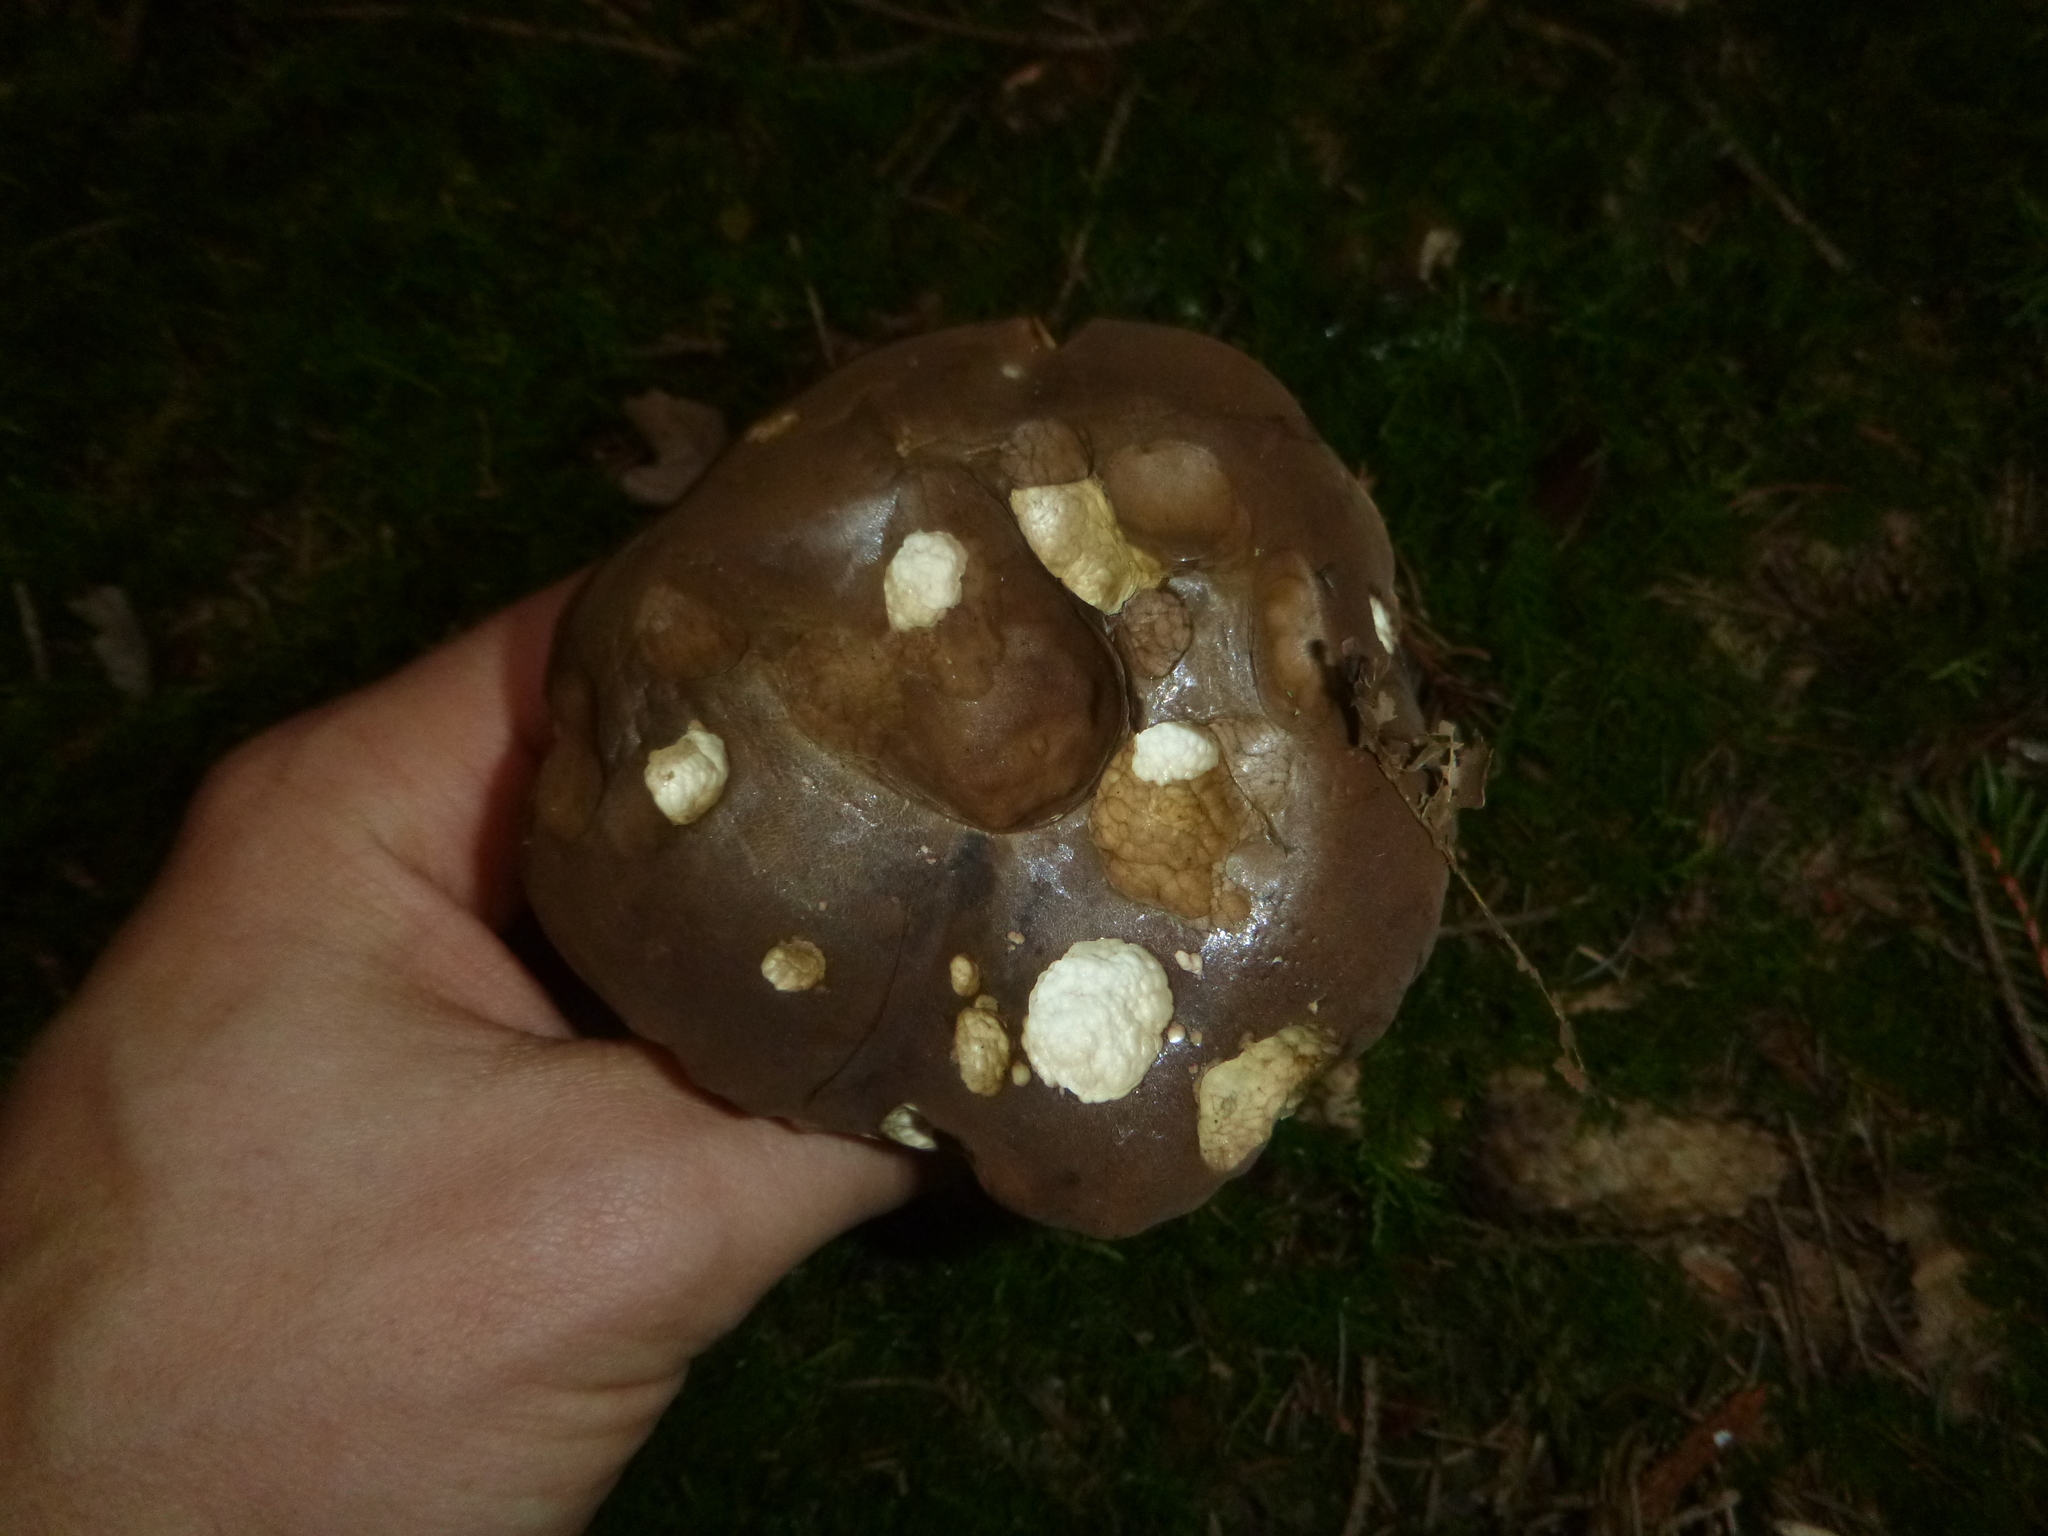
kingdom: Fungi
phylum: Basidiomycota
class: Agaricomycetes
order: Boletales
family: Boletaceae
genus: Tylopilus
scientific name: Tylopilus felleus
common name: Bitter bolete
